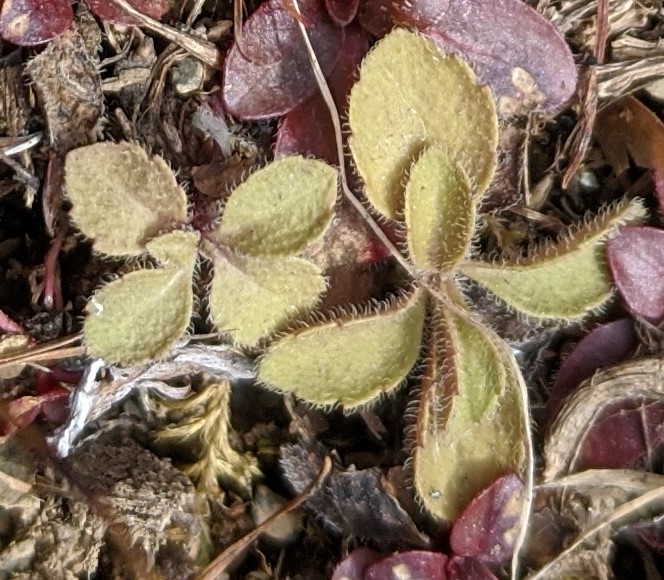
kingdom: Plantae
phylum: Tracheophyta
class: Magnoliopsida
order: Lamiales
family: Plantaginaceae
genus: Veronica
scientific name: Veronica officinalis
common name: Common speedwell
